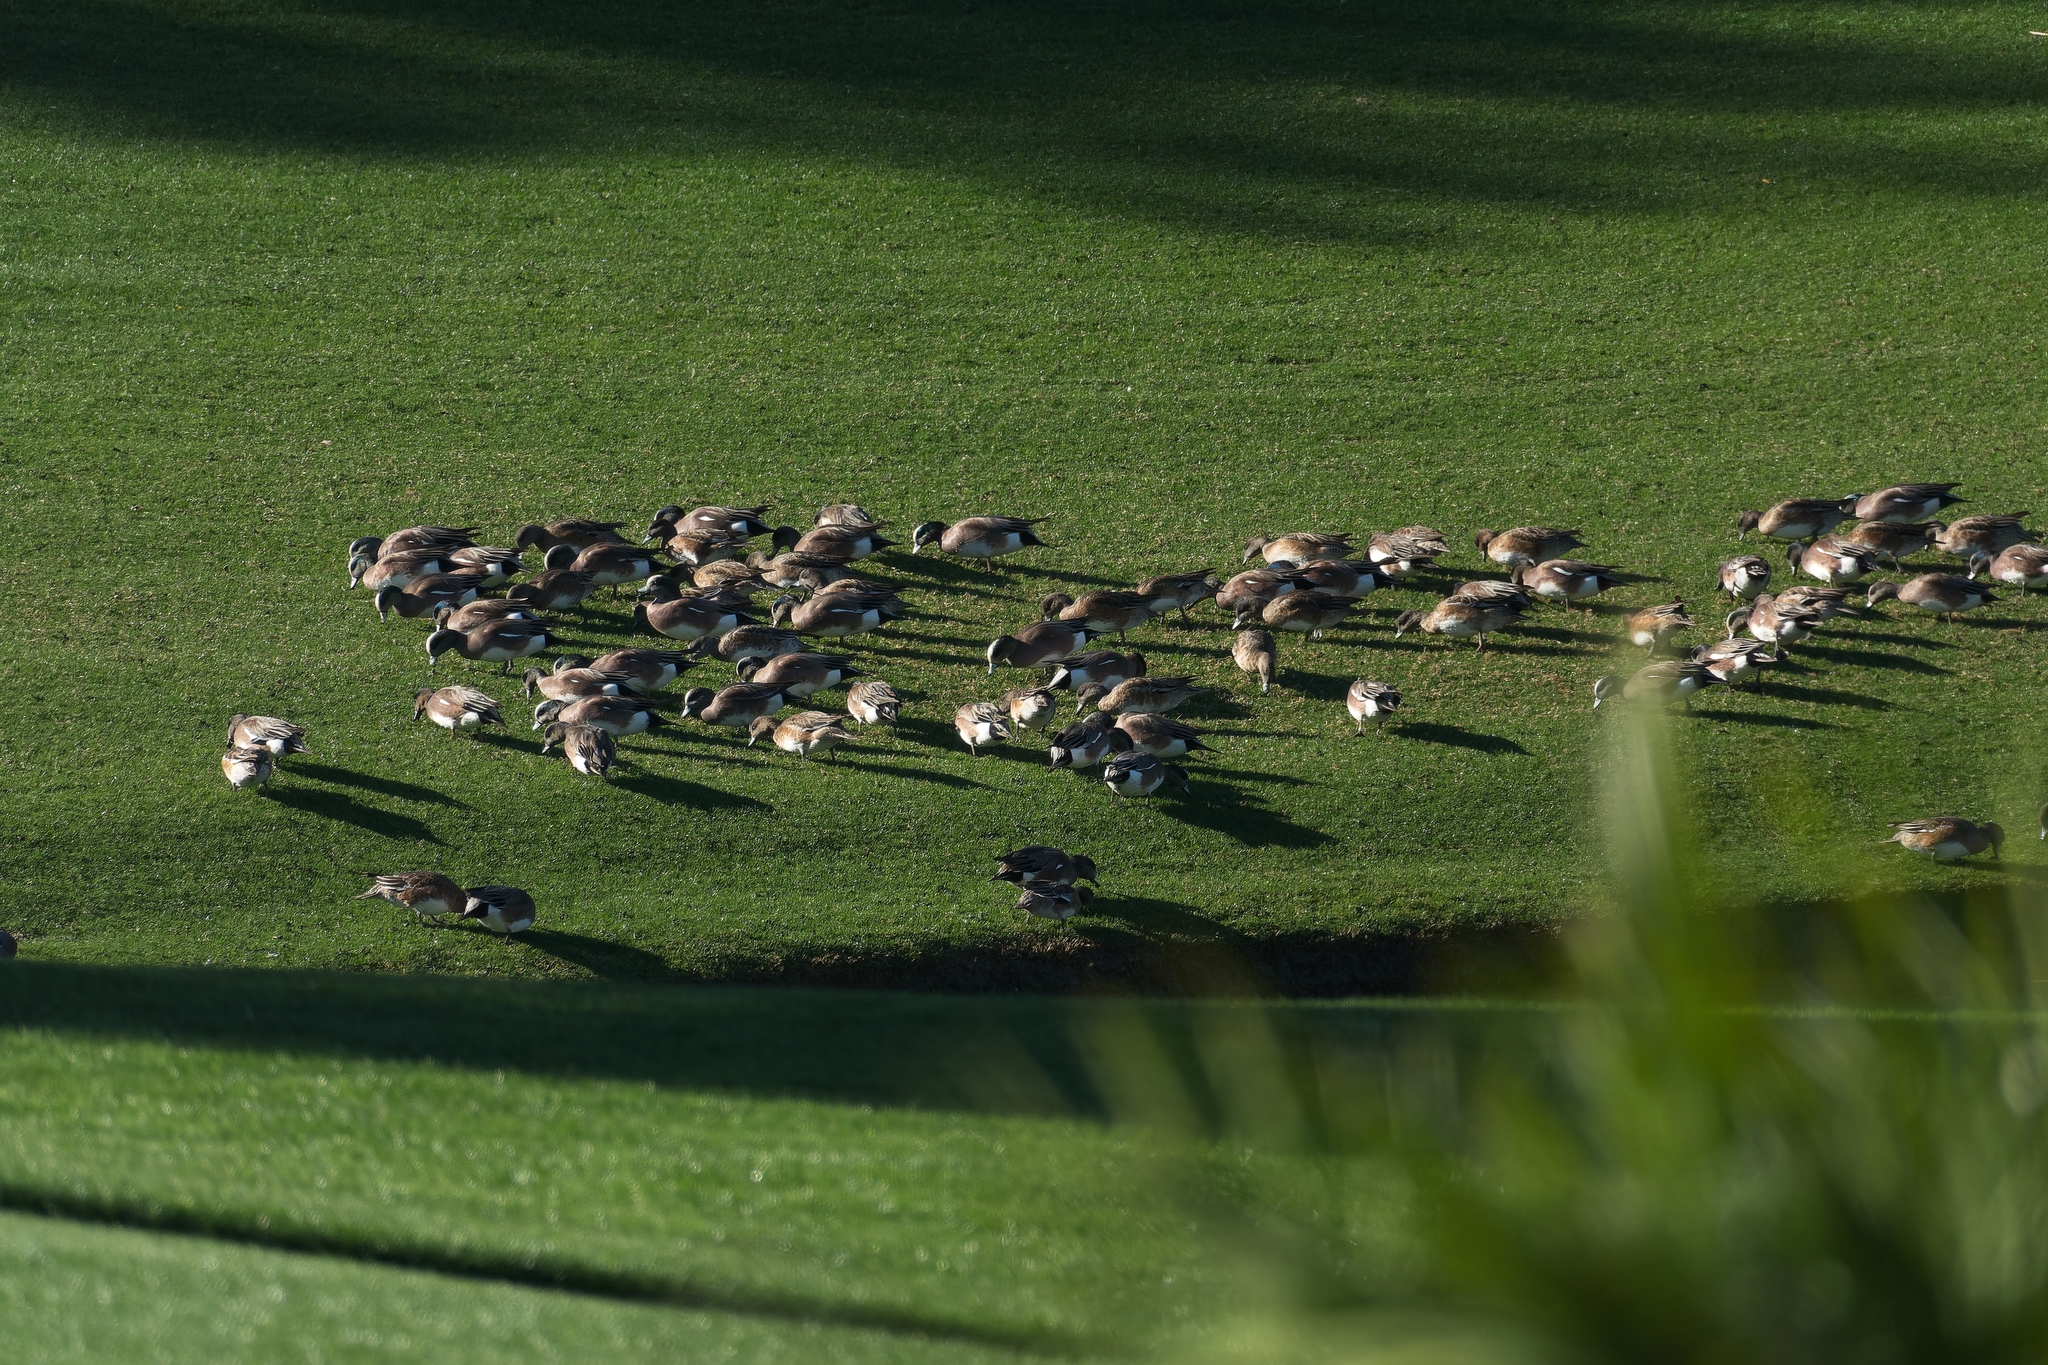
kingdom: Animalia
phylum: Chordata
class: Aves
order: Anseriformes
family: Anatidae
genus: Mareca
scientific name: Mareca americana
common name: American wigeon
